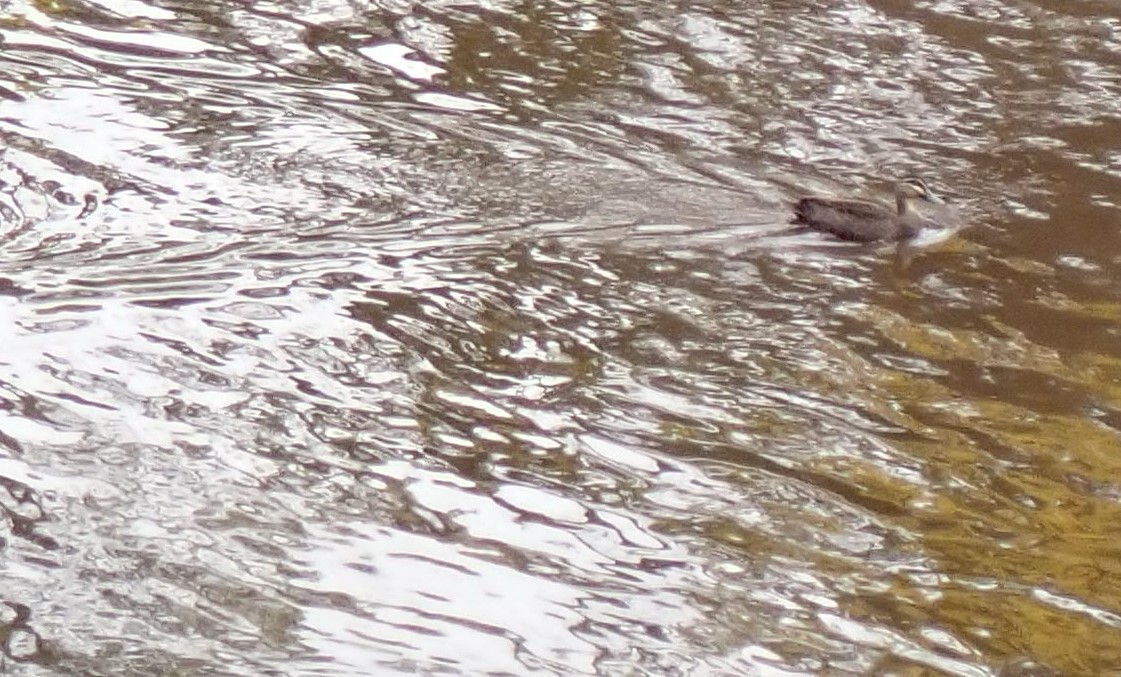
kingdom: Animalia
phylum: Chordata
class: Aves
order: Anseriformes
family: Anatidae
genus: Anas
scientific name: Anas superciliosa
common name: Pacific black duck
